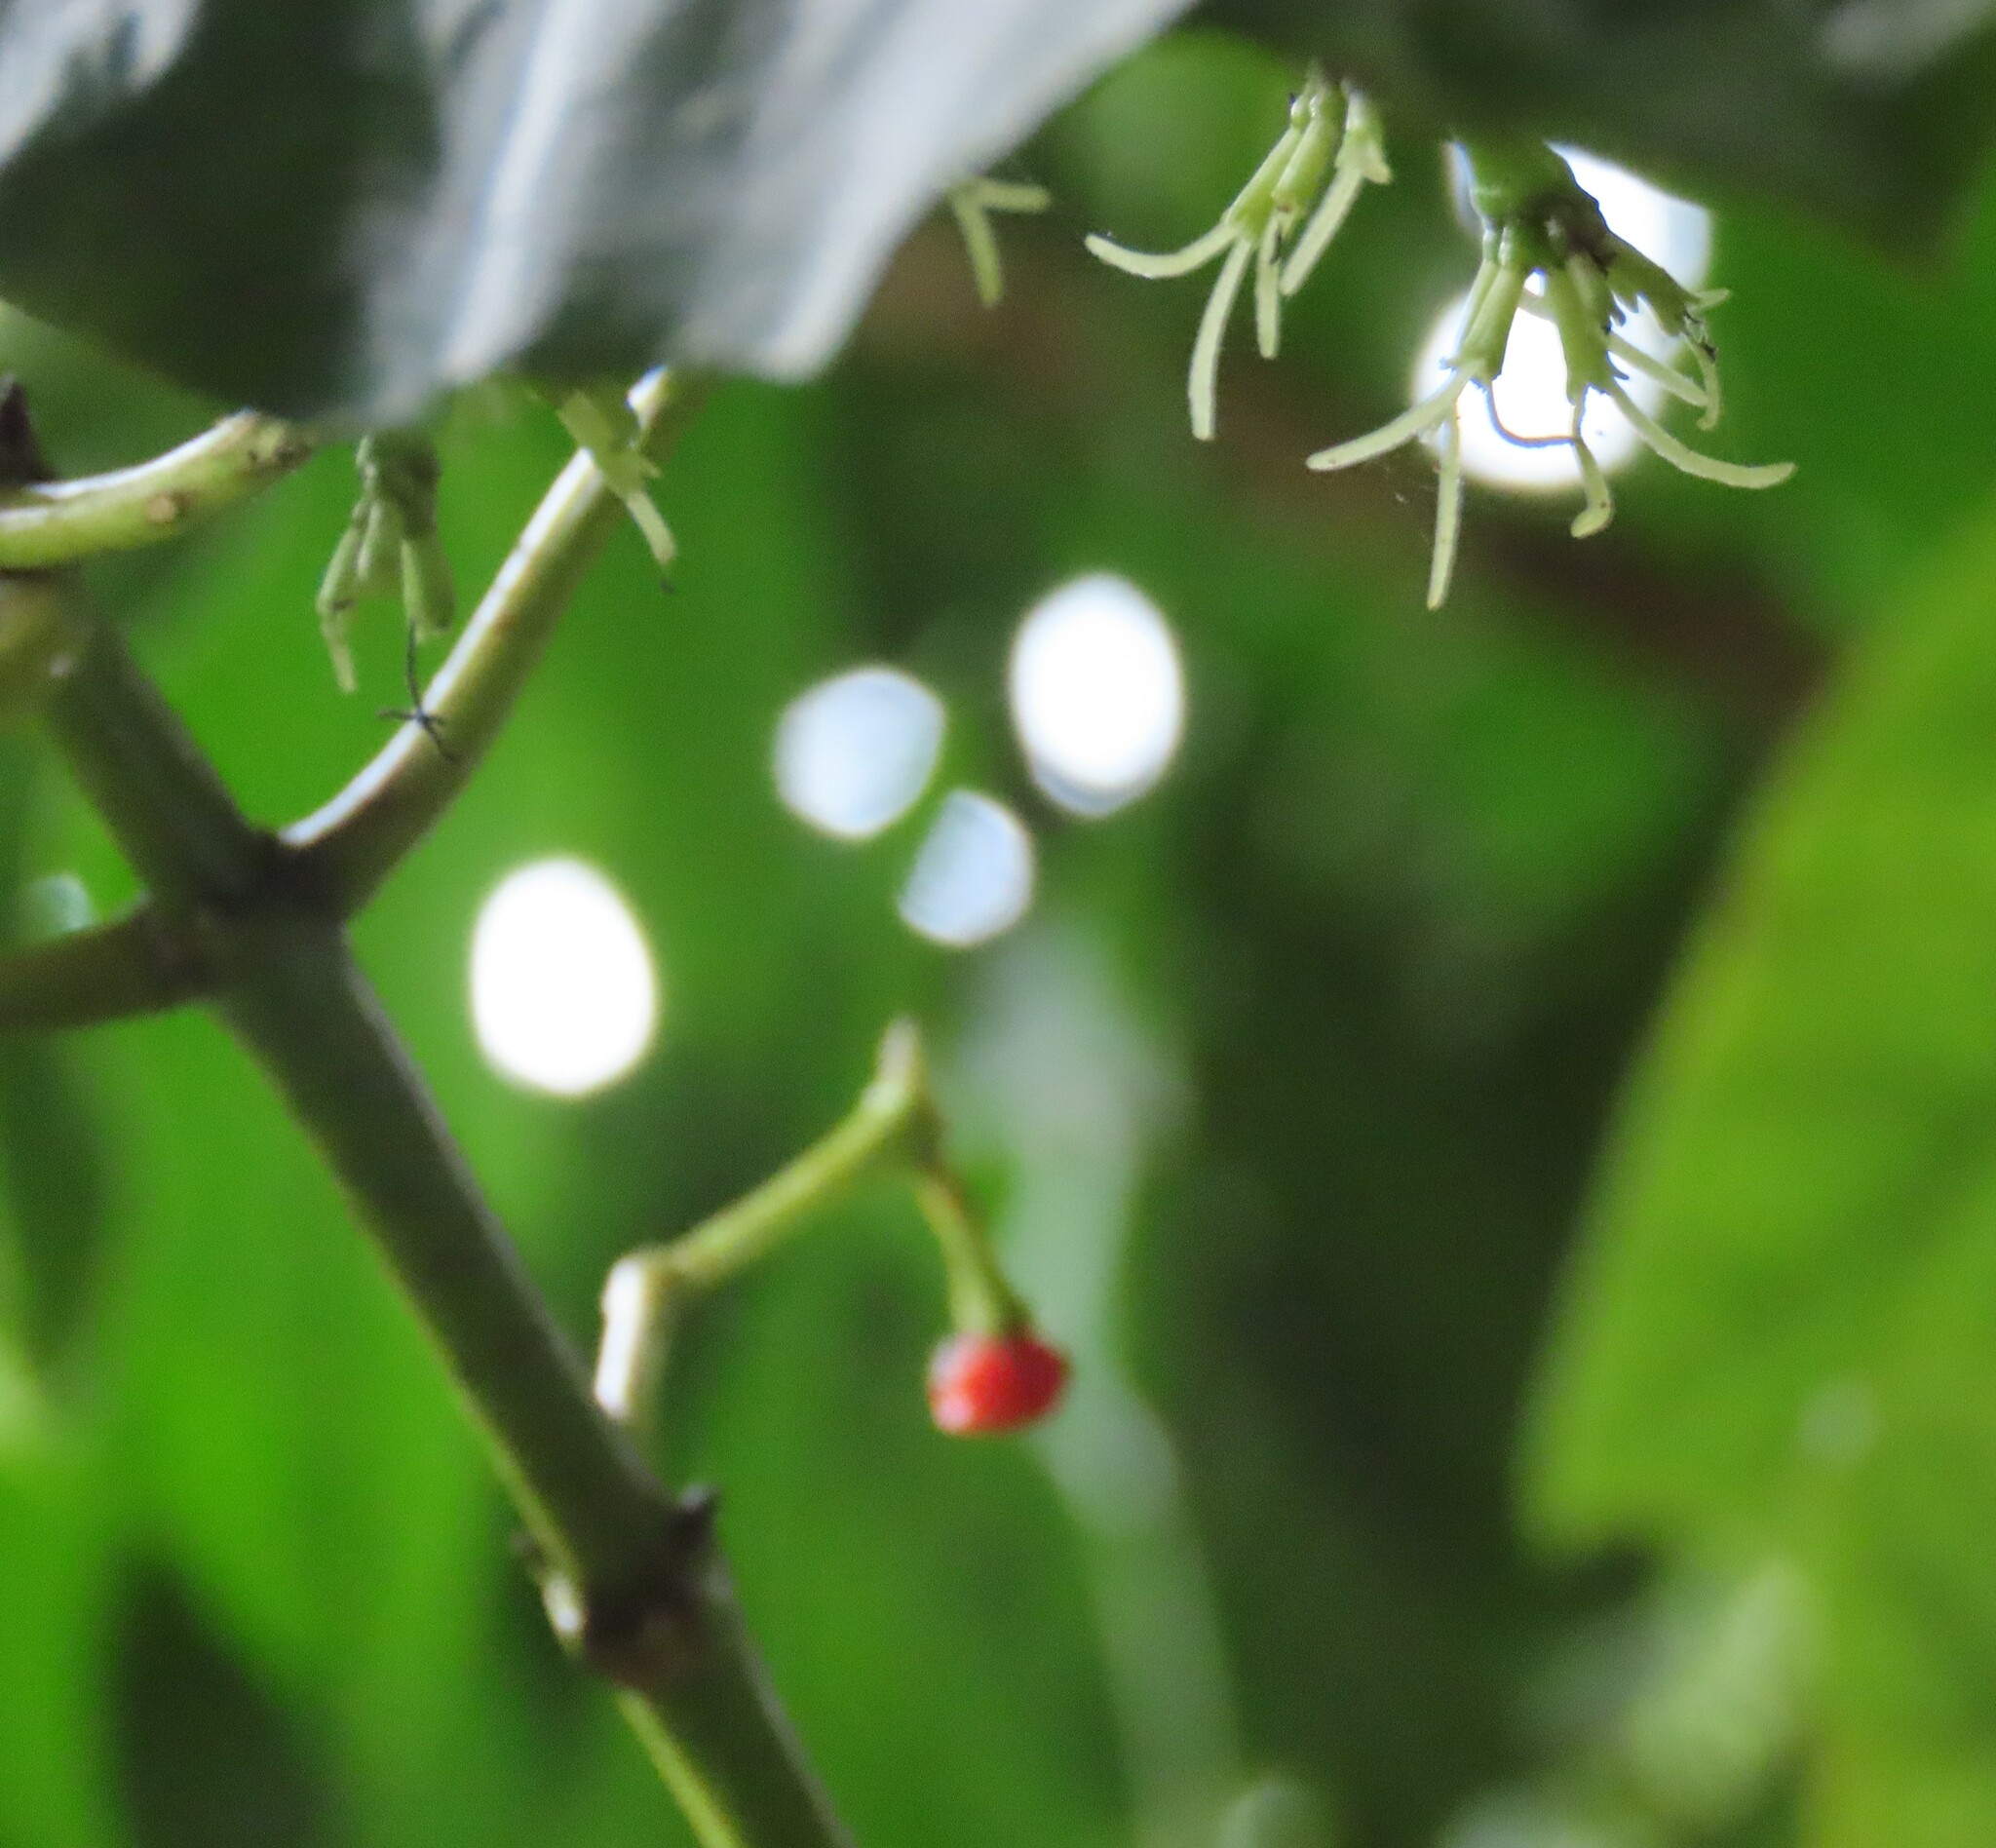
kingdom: Plantae
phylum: Tracheophyta
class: Magnoliopsida
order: Gentianales
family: Rubiaceae
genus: Coprosma
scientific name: Coprosma autumnalis
